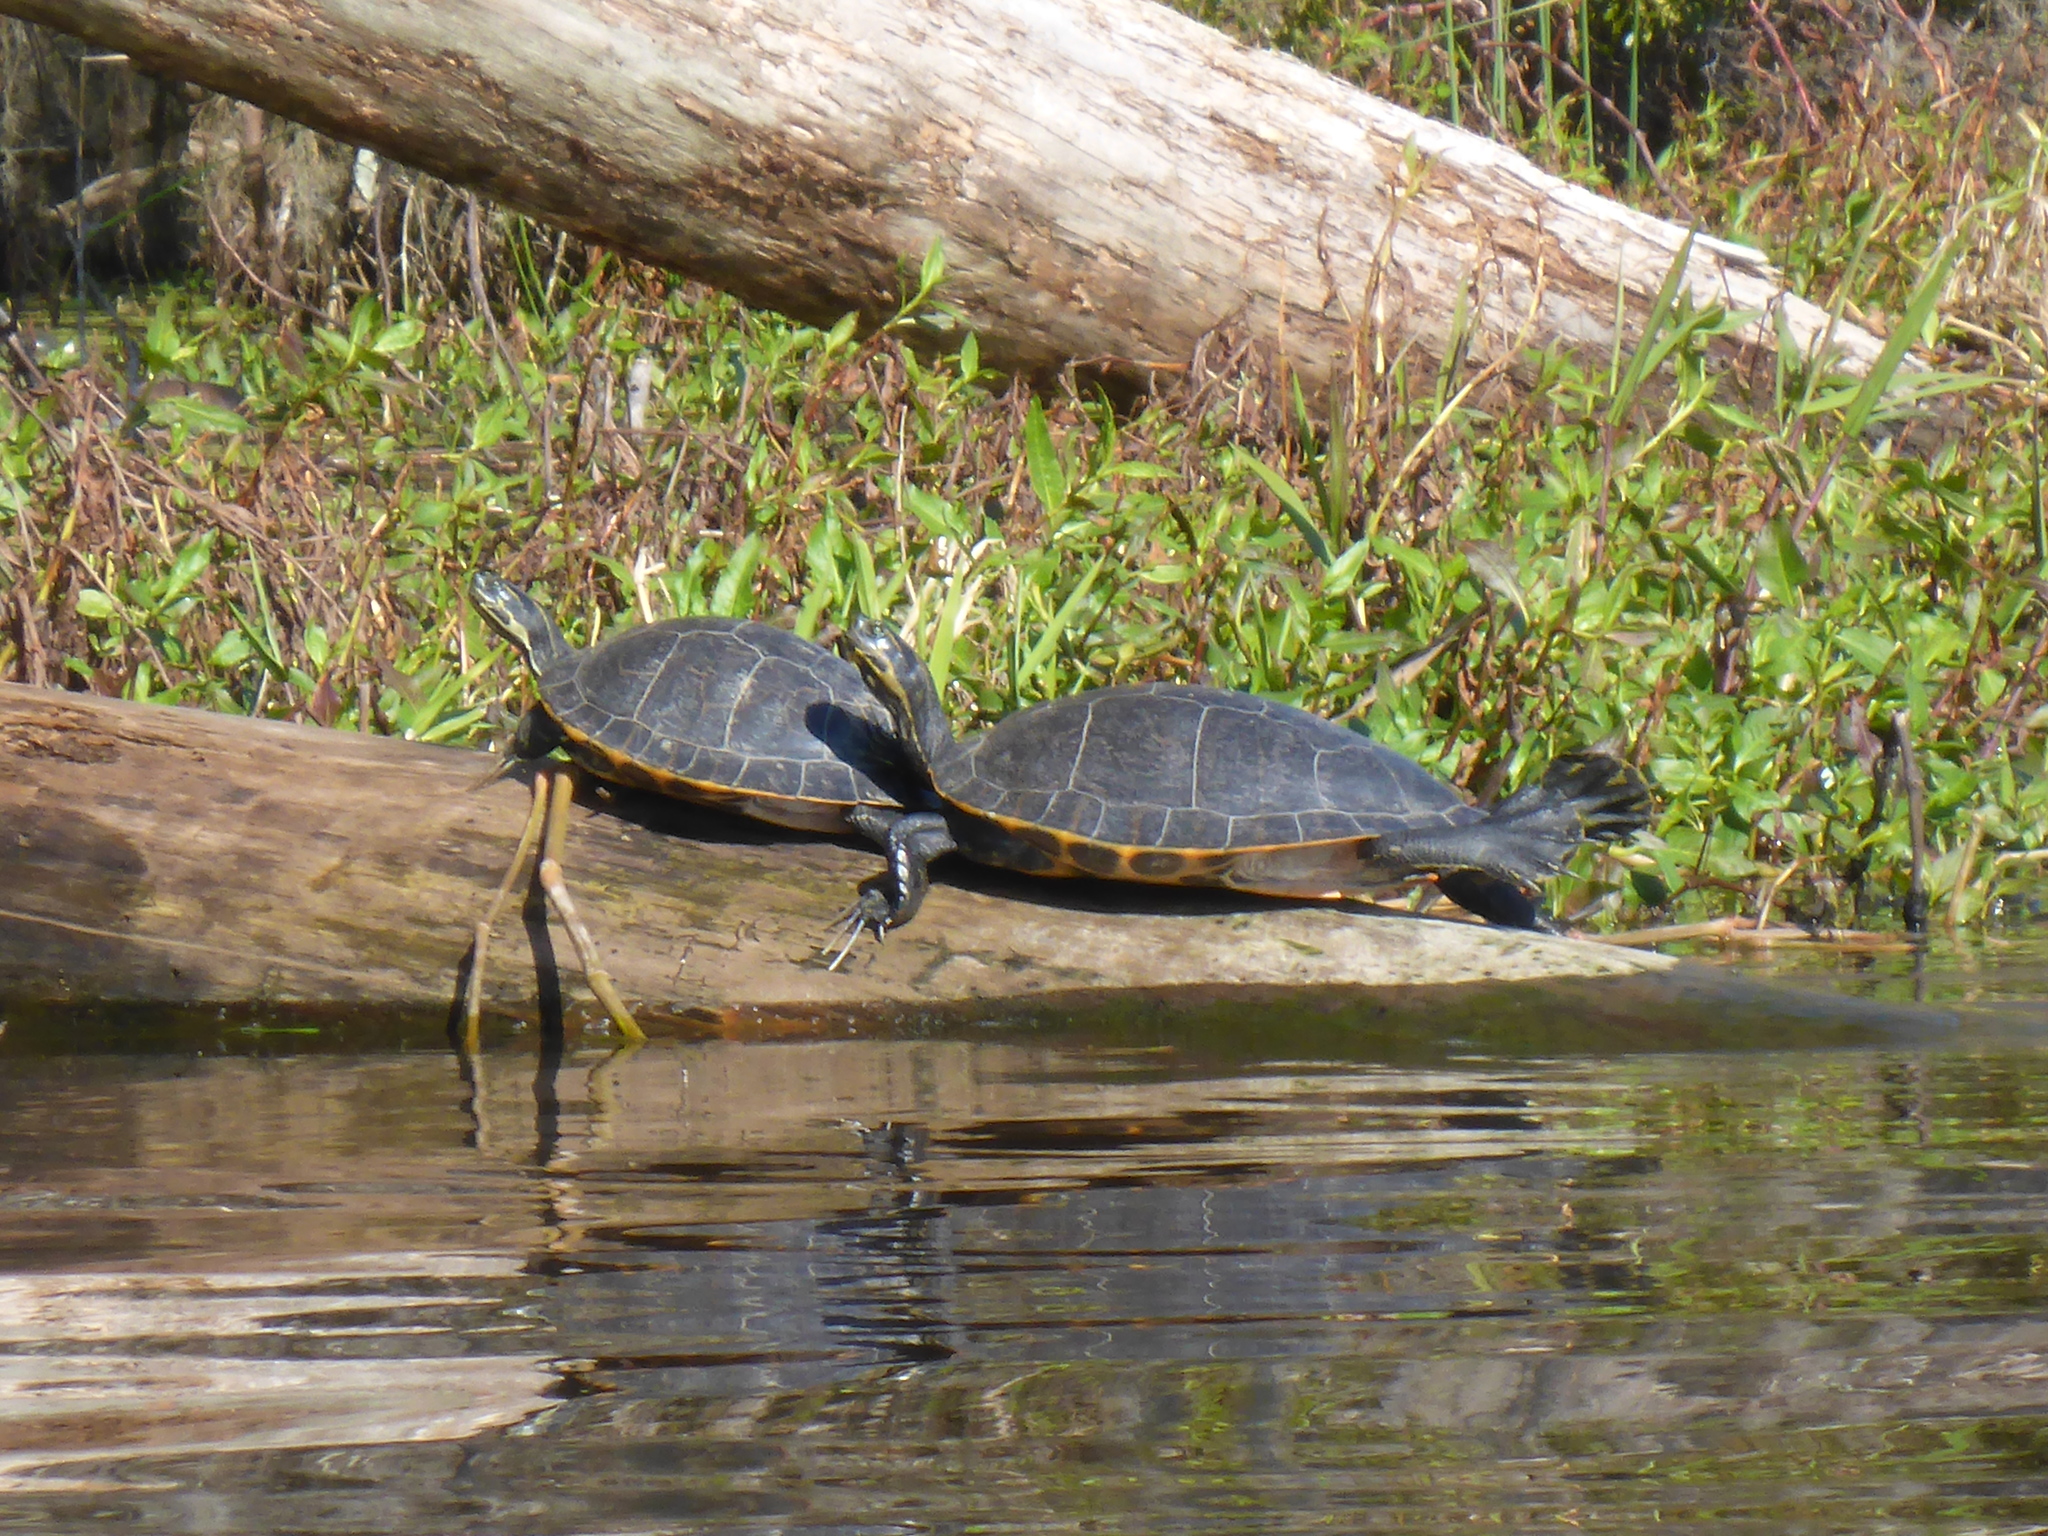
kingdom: Animalia
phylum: Chordata
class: Testudines
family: Emydidae
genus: Pseudemys
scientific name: Pseudemys concinna
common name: Eastern river cooter
